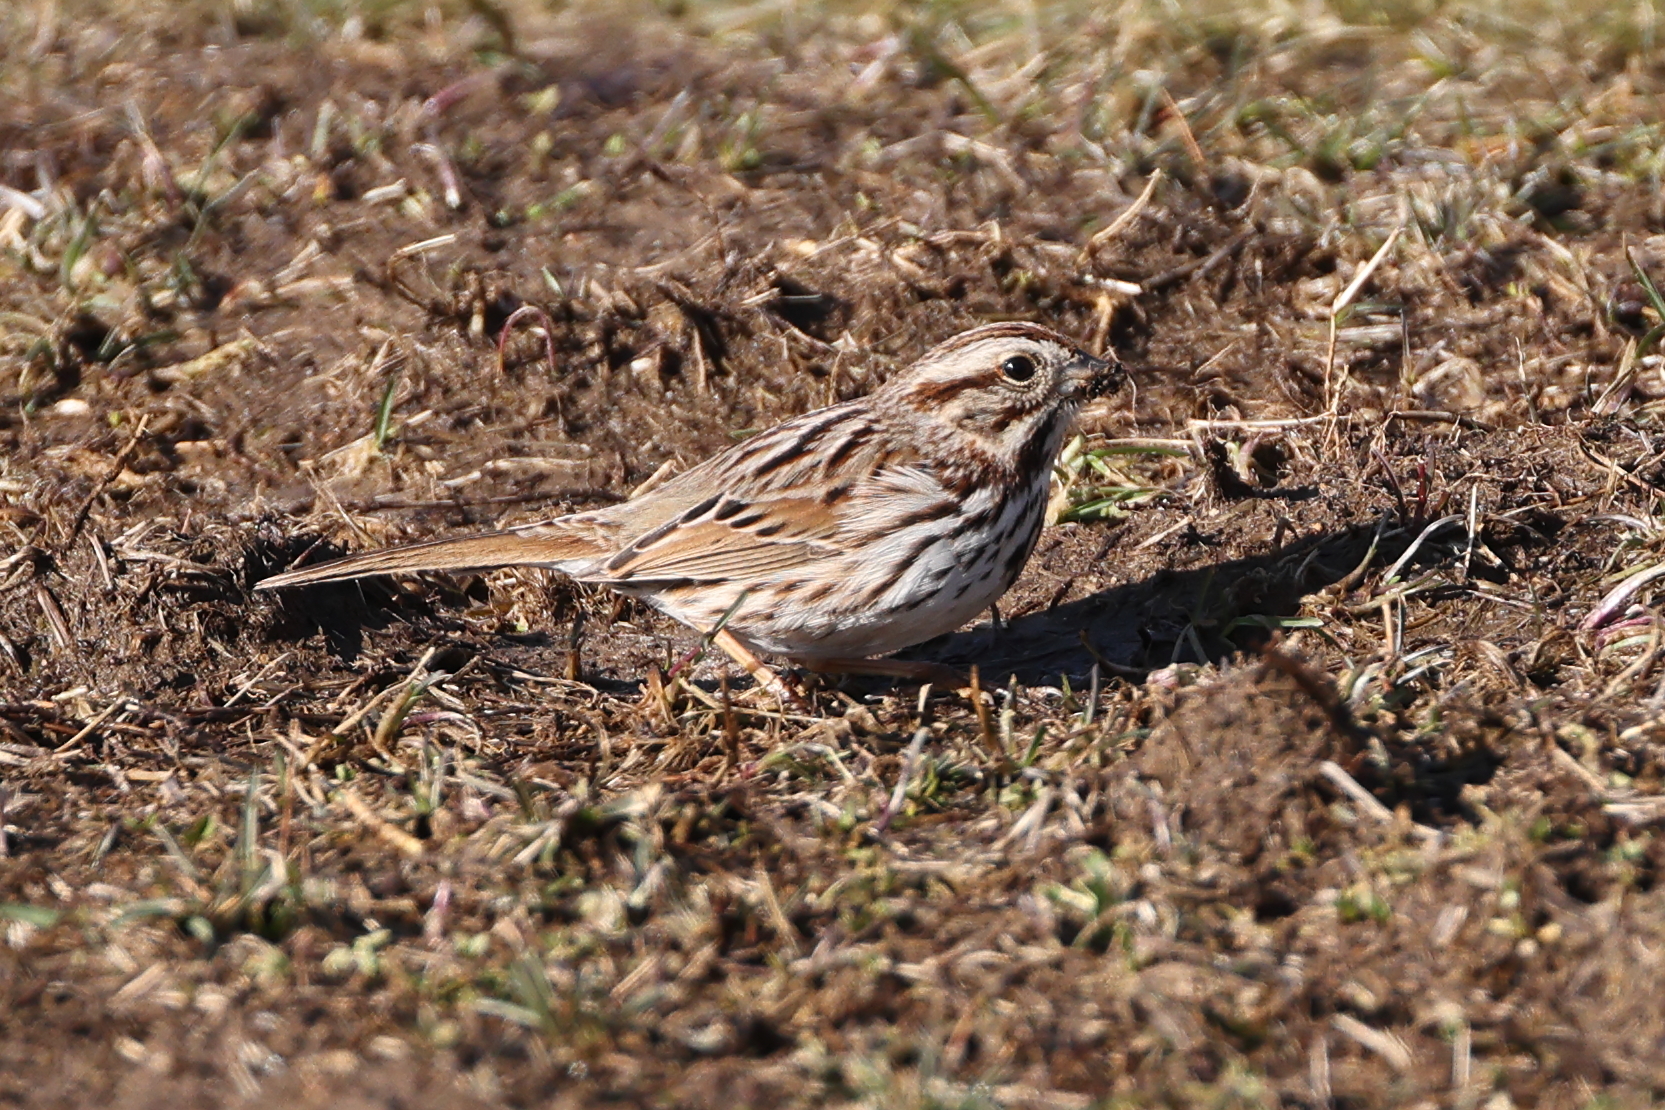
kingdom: Animalia
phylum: Chordata
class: Aves
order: Passeriformes
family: Passerellidae
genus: Melospiza
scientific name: Melospiza melodia
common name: Song sparrow
